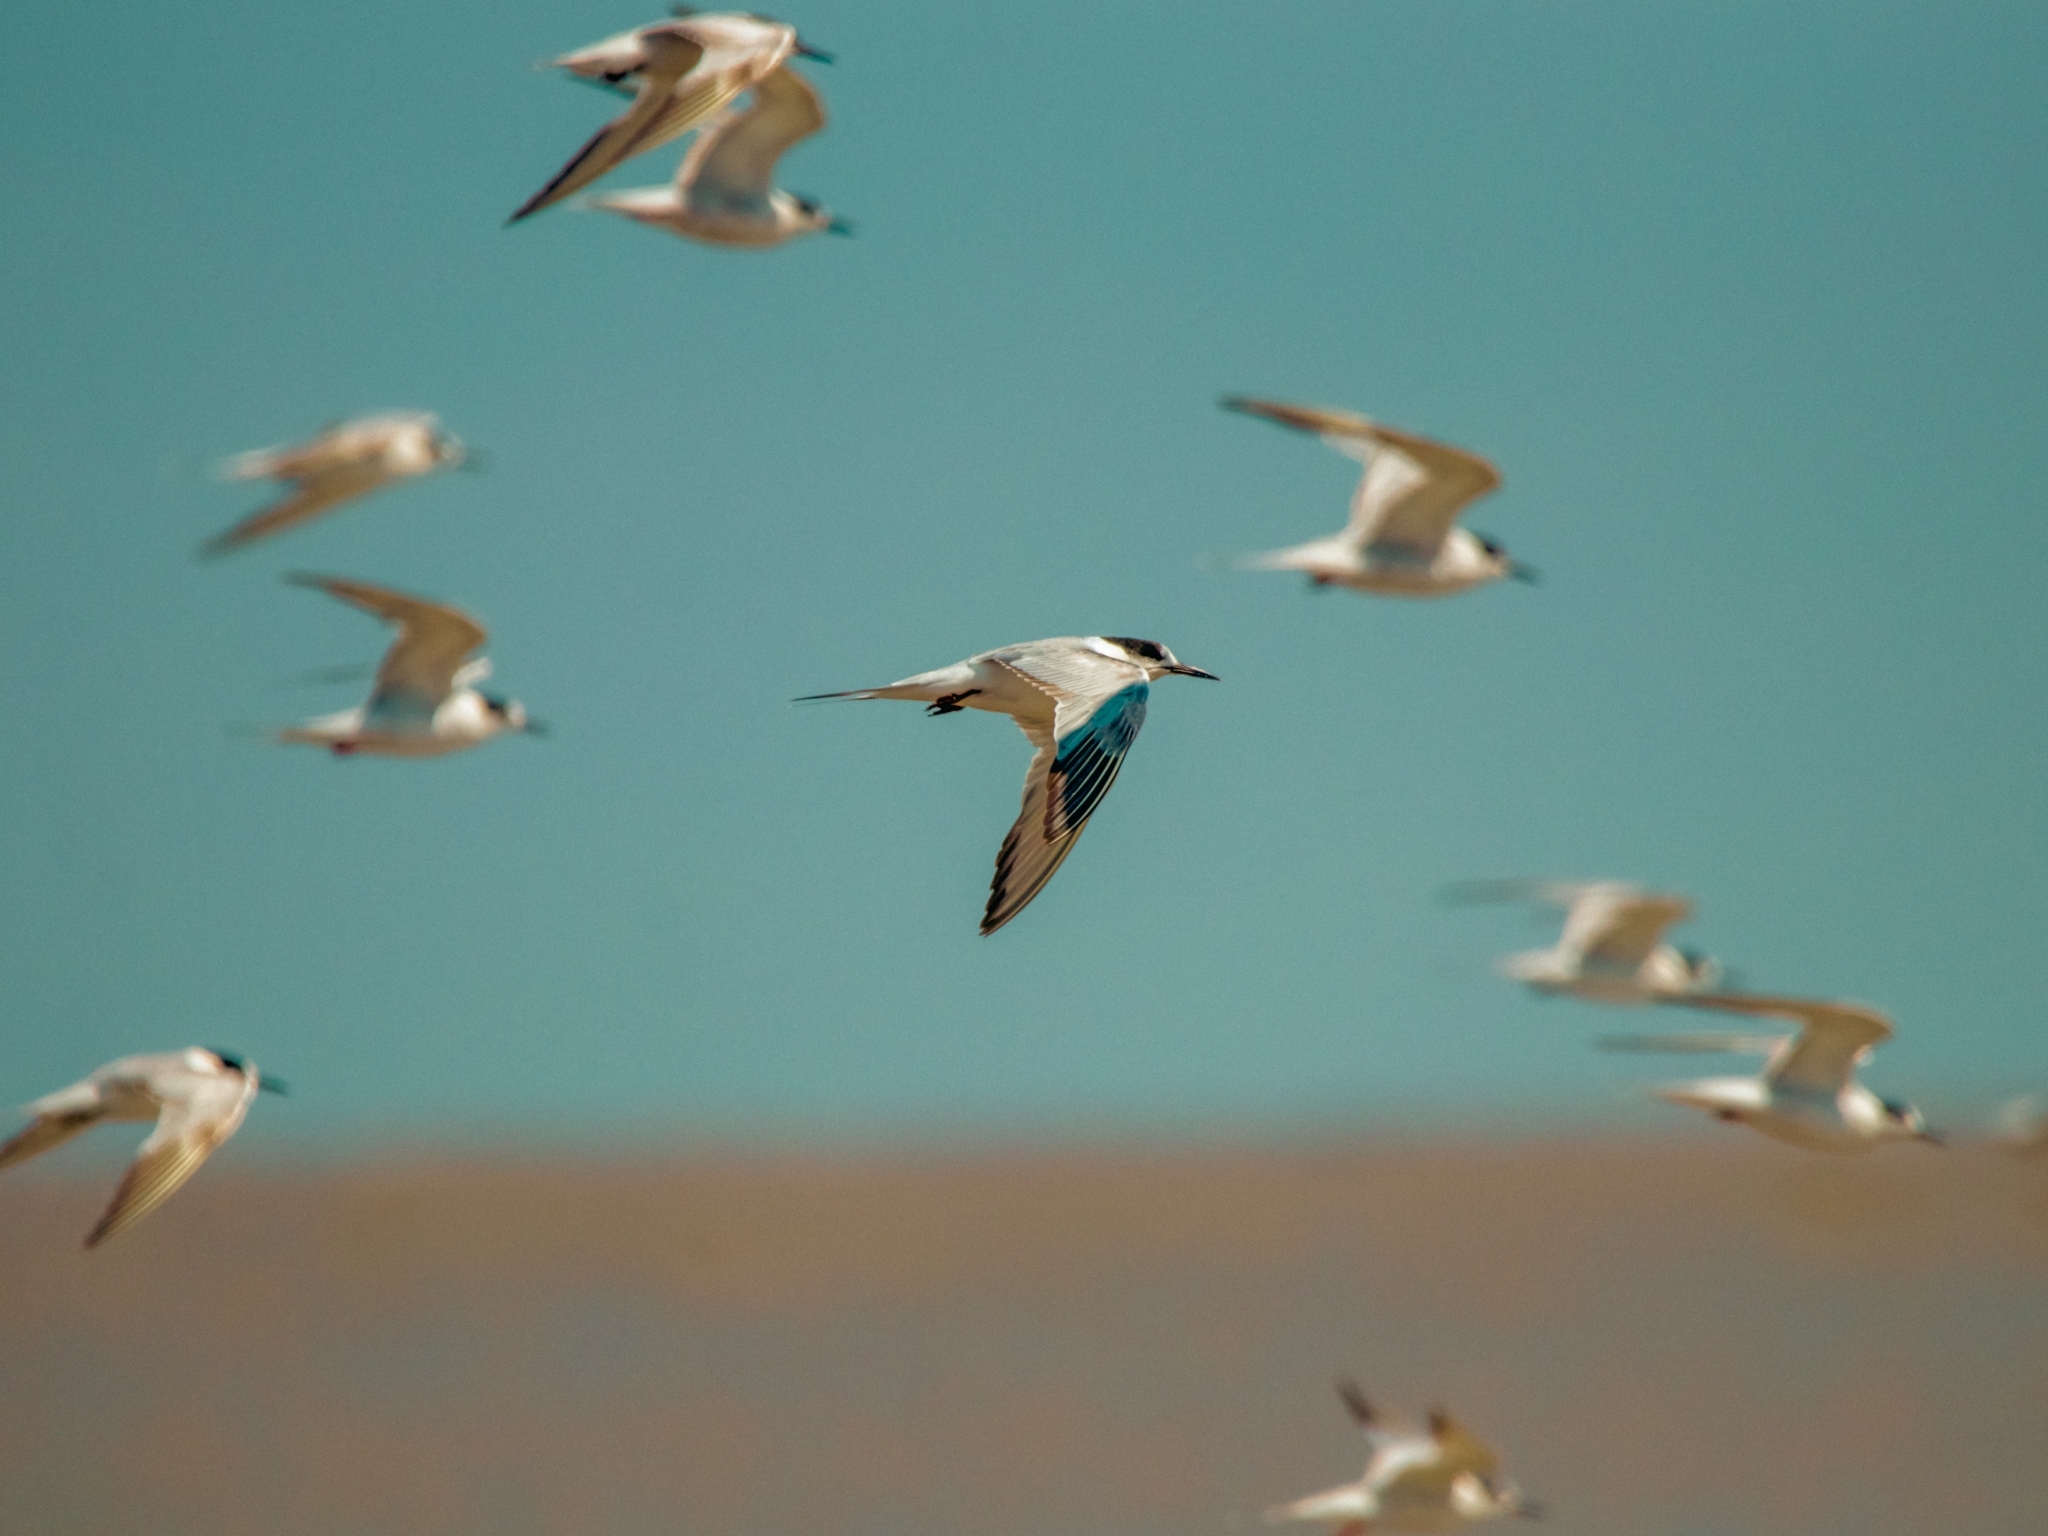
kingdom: Animalia
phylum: Chordata
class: Aves
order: Charadriiformes
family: Laridae
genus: Sterna
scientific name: Sterna hirundo
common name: Common tern
